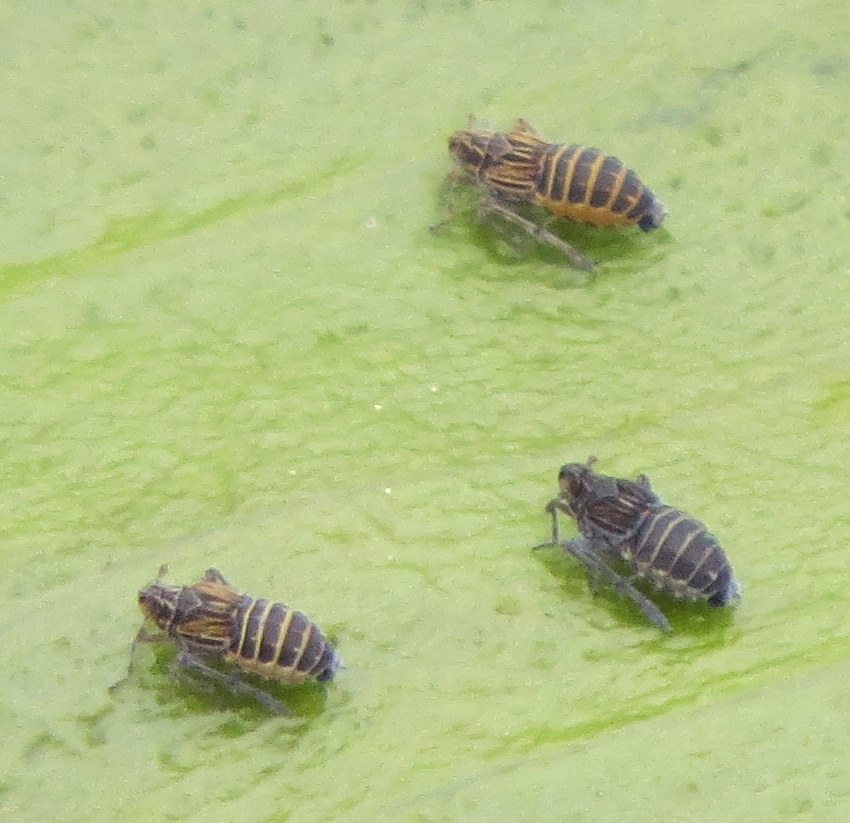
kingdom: Animalia
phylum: Arthropoda
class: Insecta
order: Hemiptera
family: Delphacidae
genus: Megamelus
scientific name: Megamelus davisi
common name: Planthopper
